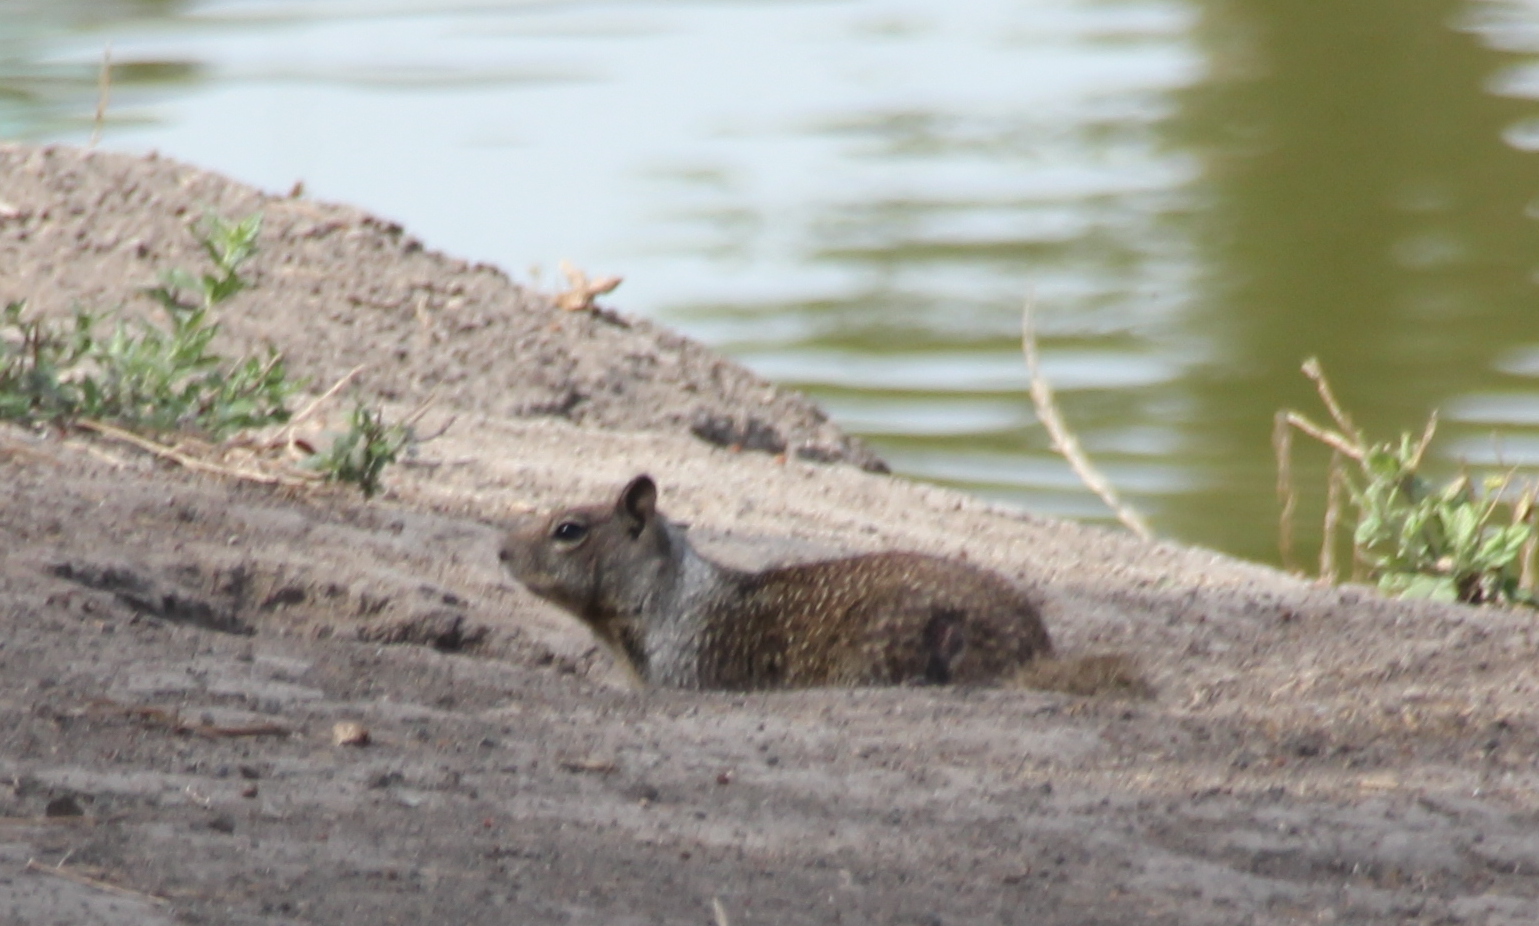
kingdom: Animalia
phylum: Chordata
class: Mammalia
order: Rodentia
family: Sciuridae
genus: Otospermophilus
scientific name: Otospermophilus beecheyi
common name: California ground squirrel
